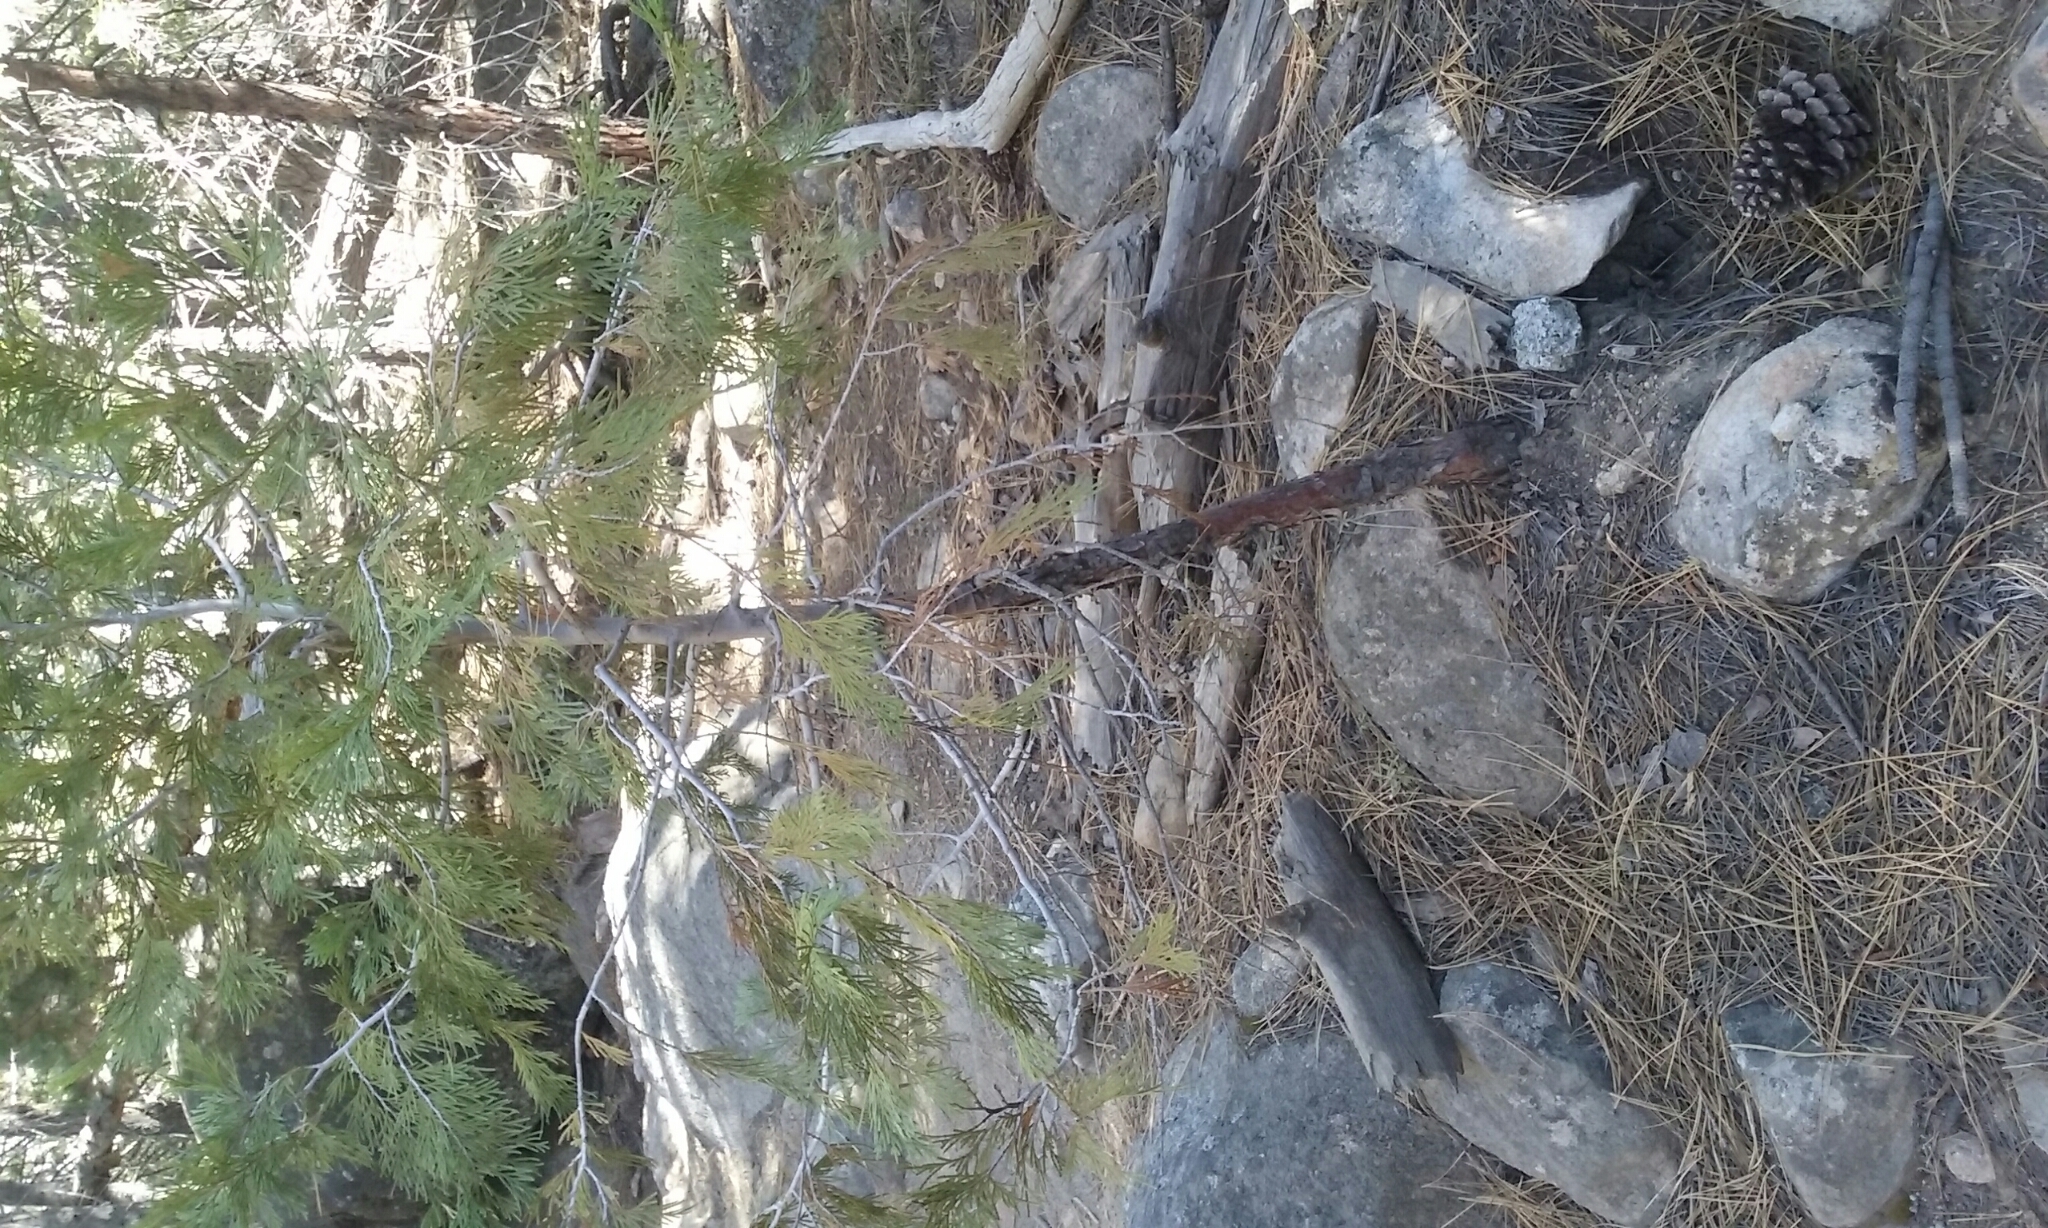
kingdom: Plantae
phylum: Tracheophyta
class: Pinopsida
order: Pinales
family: Cupressaceae
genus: Calocedrus
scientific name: Calocedrus decurrens
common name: Californian incense-cedar
